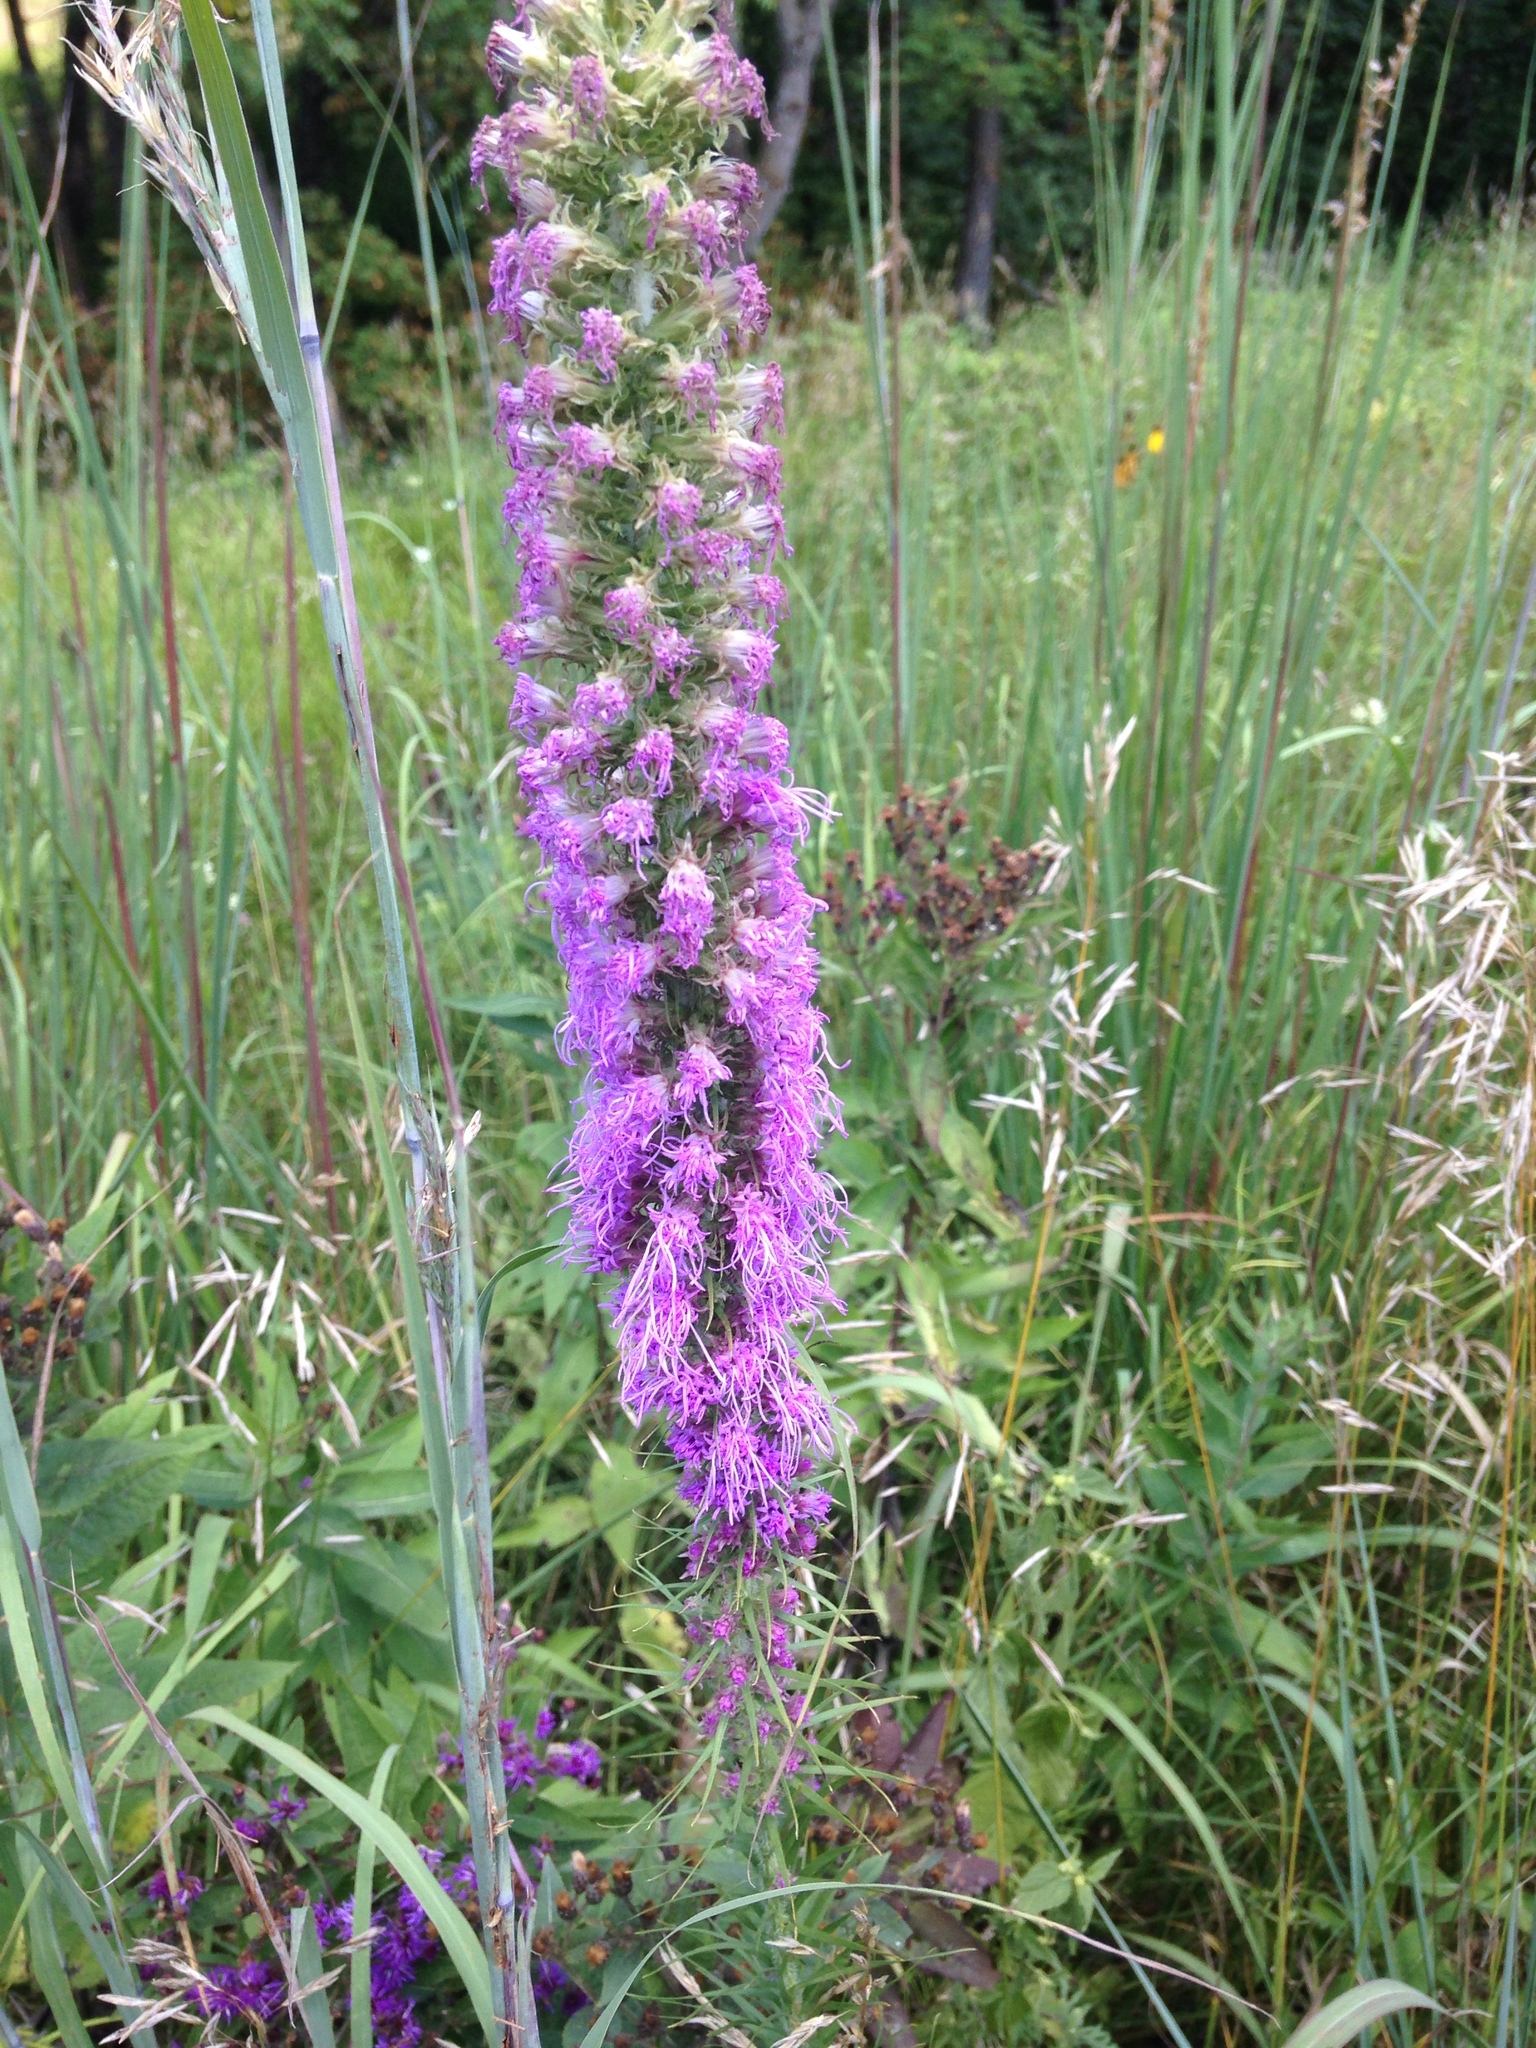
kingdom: Plantae
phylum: Tracheophyta
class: Magnoliopsida
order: Asterales
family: Asteraceae
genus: Liatris
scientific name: Liatris pycnostachya
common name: Cattail gayfeather
